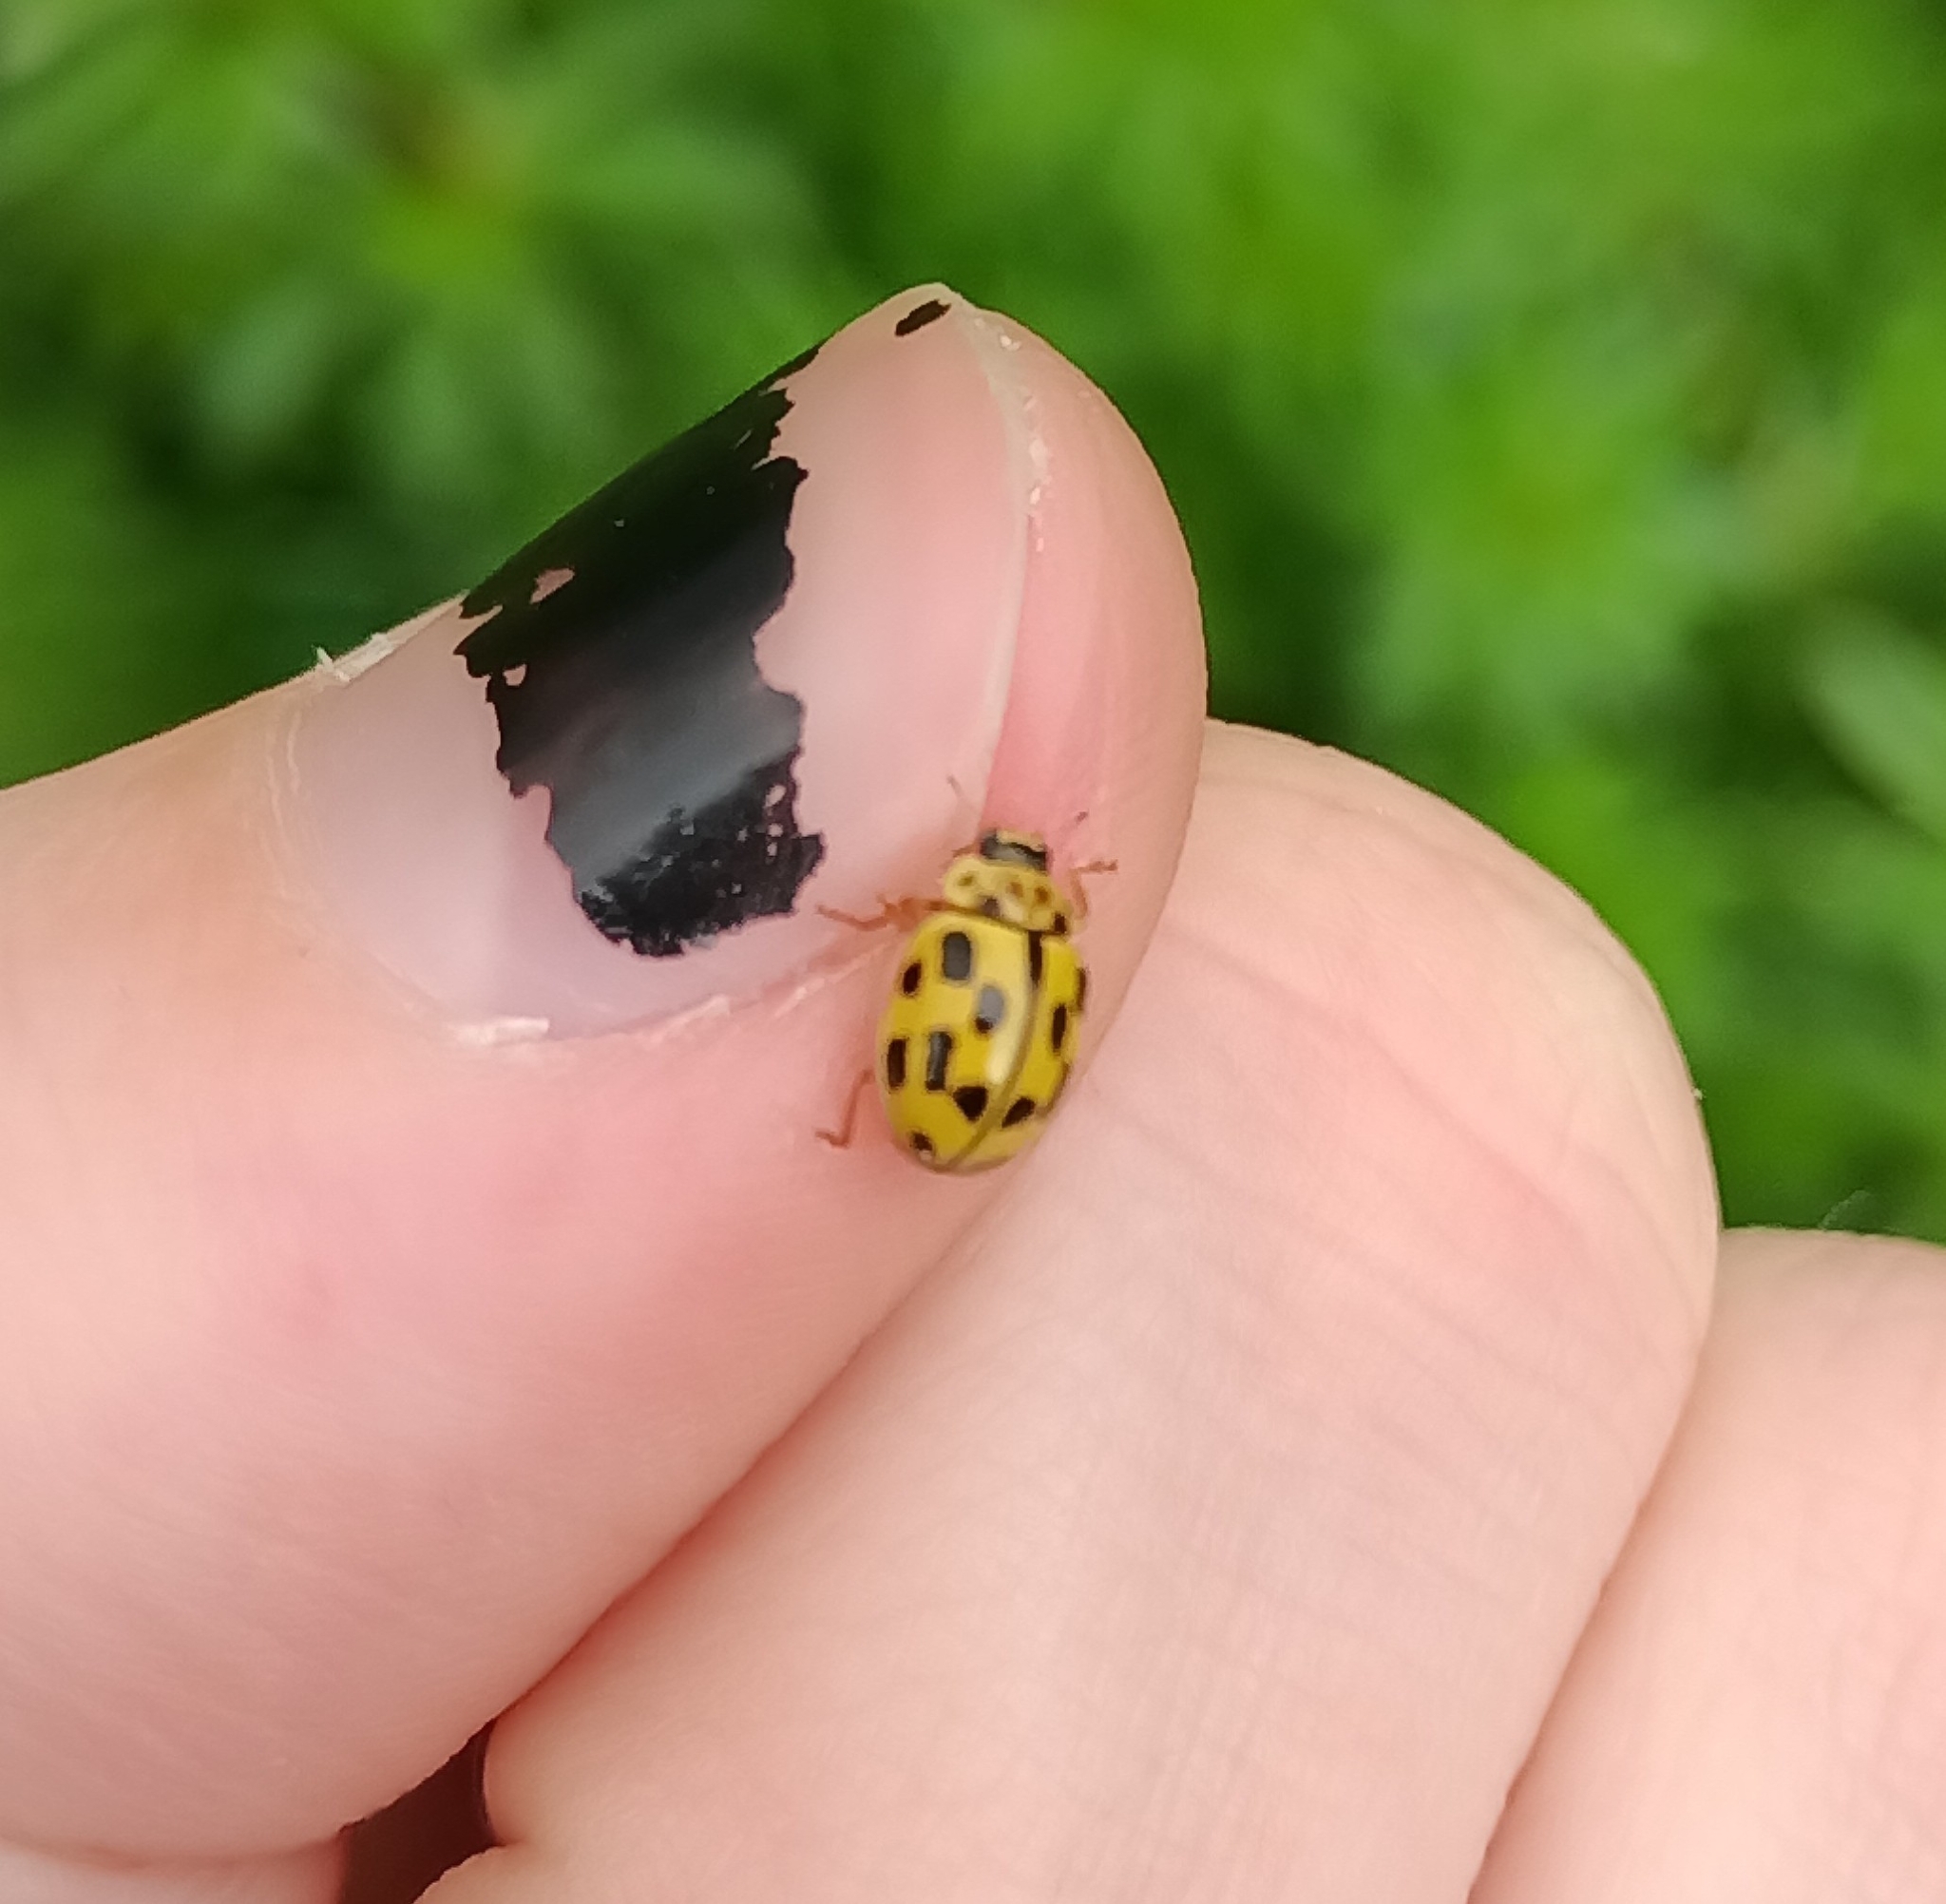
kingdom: Animalia
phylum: Arthropoda
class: Insecta
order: Coleoptera
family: Coccinellidae
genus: Propylaea
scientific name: Propylaea quatuordecimpunctata
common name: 14-spotted ladybird beetle
